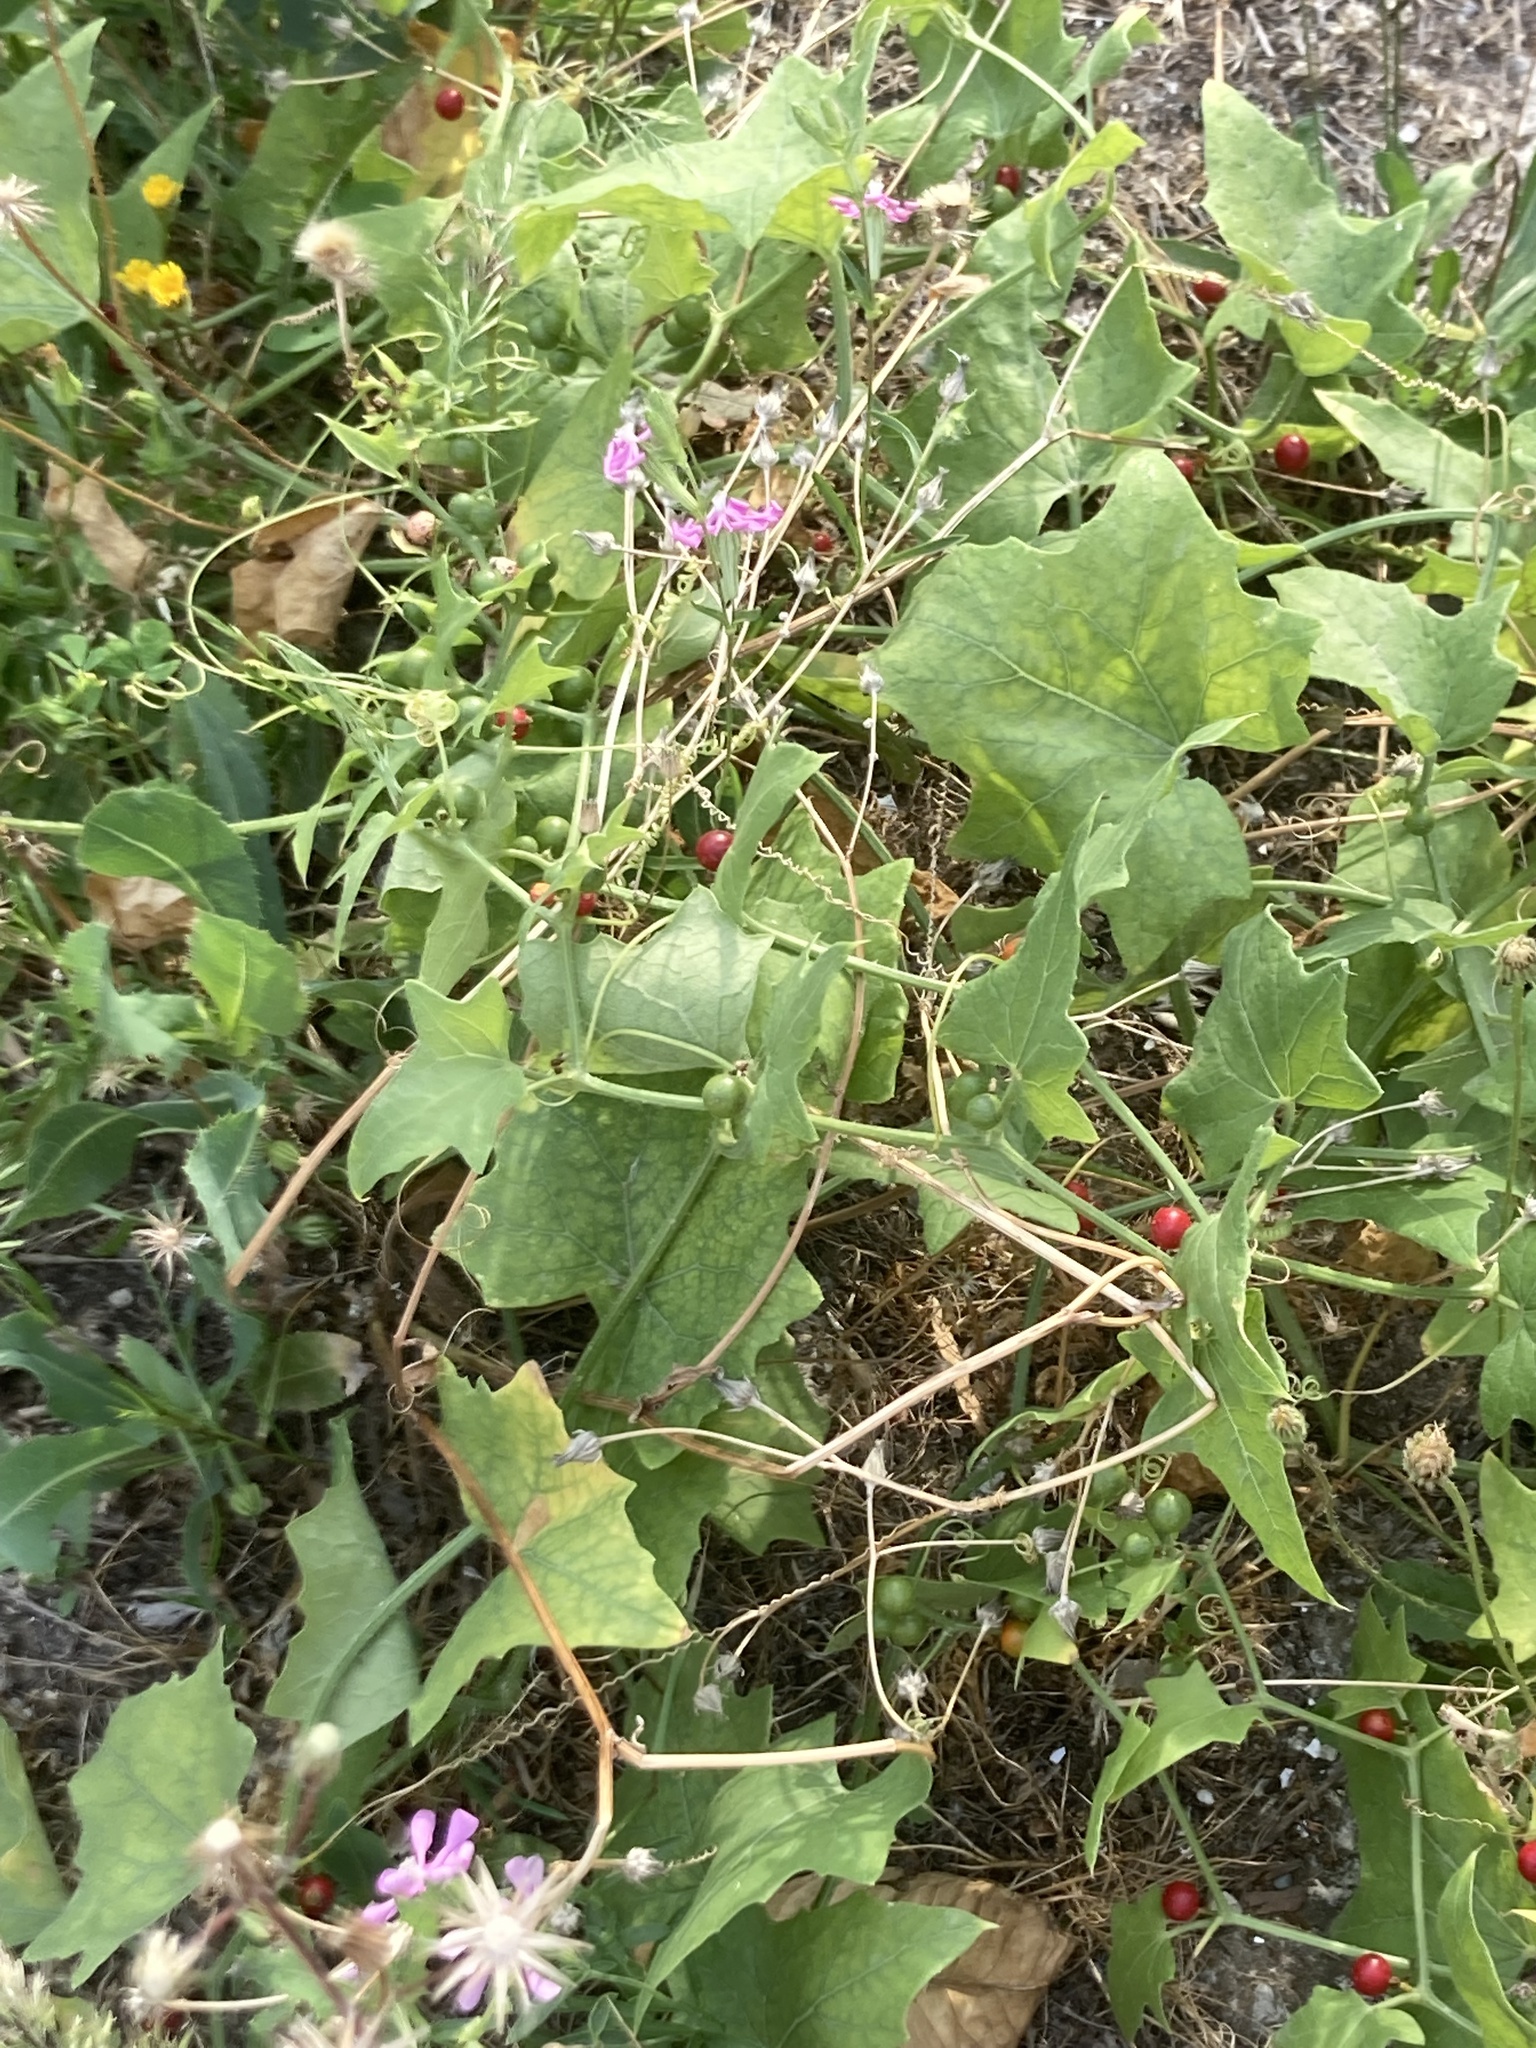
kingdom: Plantae
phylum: Tracheophyta
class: Magnoliopsida
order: Cucurbitales
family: Cucurbitaceae
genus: Bryonia
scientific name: Bryonia cretica
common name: Cretan bryony
